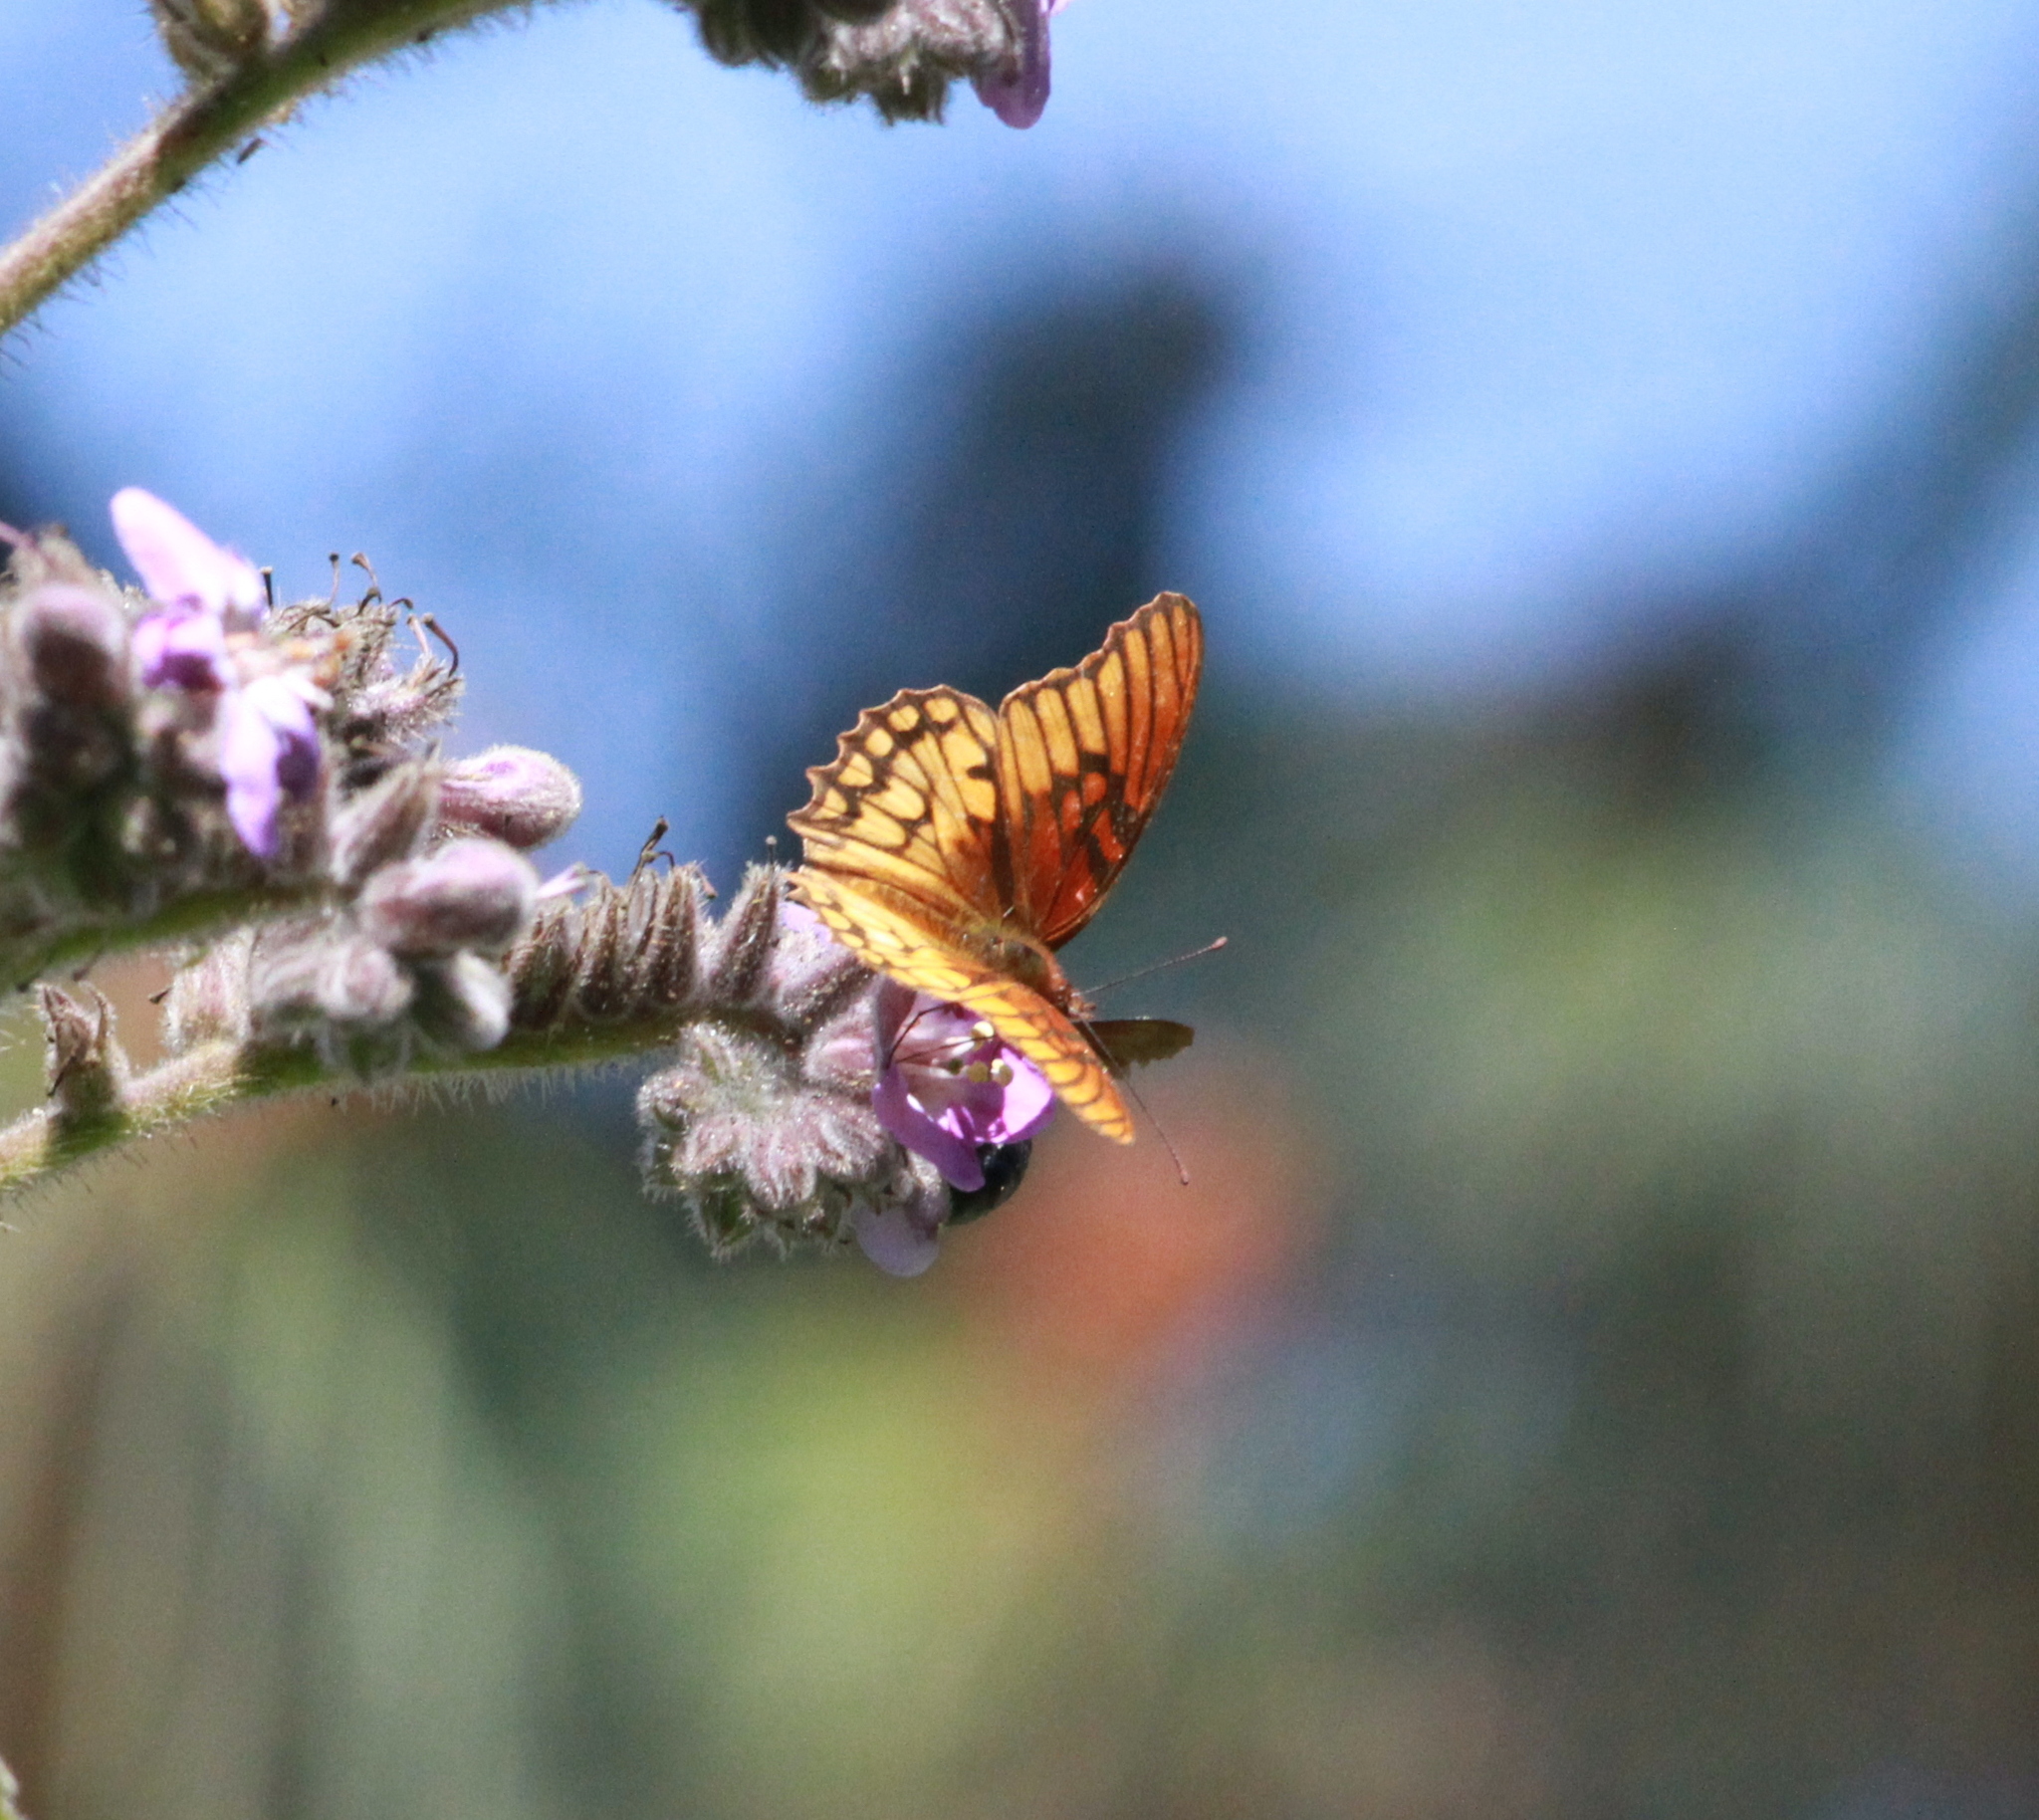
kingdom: Animalia
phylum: Arthropoda
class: Insecta
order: Lepidoptera
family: Nymphalidae
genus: Dione
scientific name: Dione moneta
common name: Mexican silverspot
